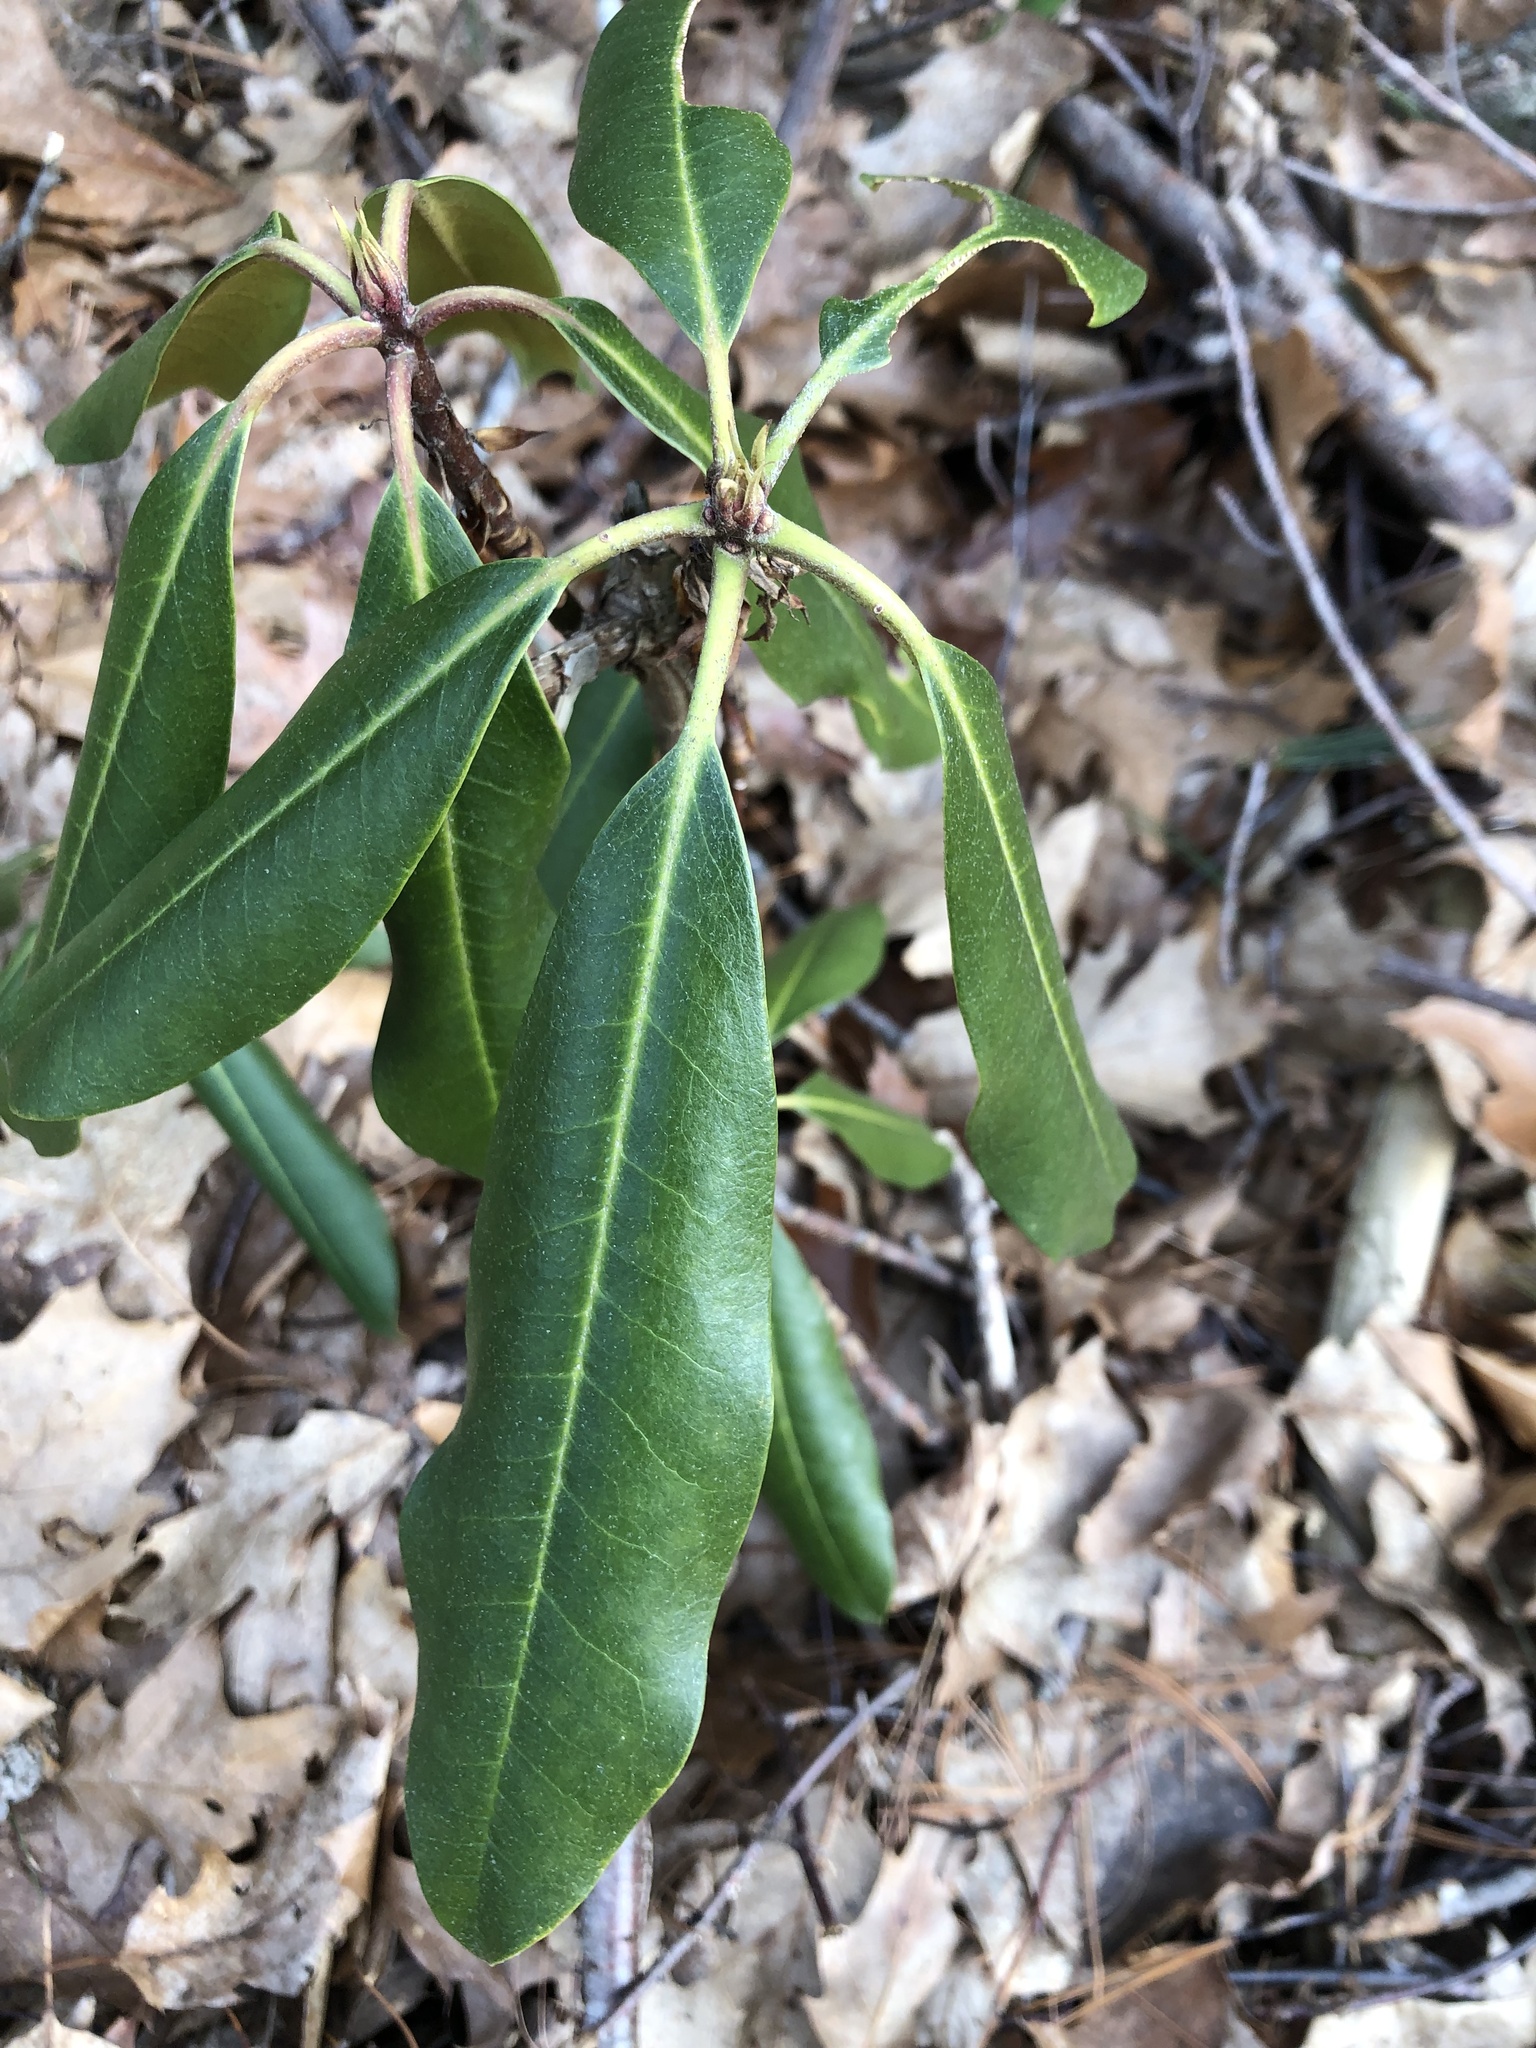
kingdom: Plantae
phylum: Tracheophyta
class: Magnoliopsida
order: Ericales
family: Ericaceae
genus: Rhododendron
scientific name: Rhododendron maximum
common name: Great rhododendron
